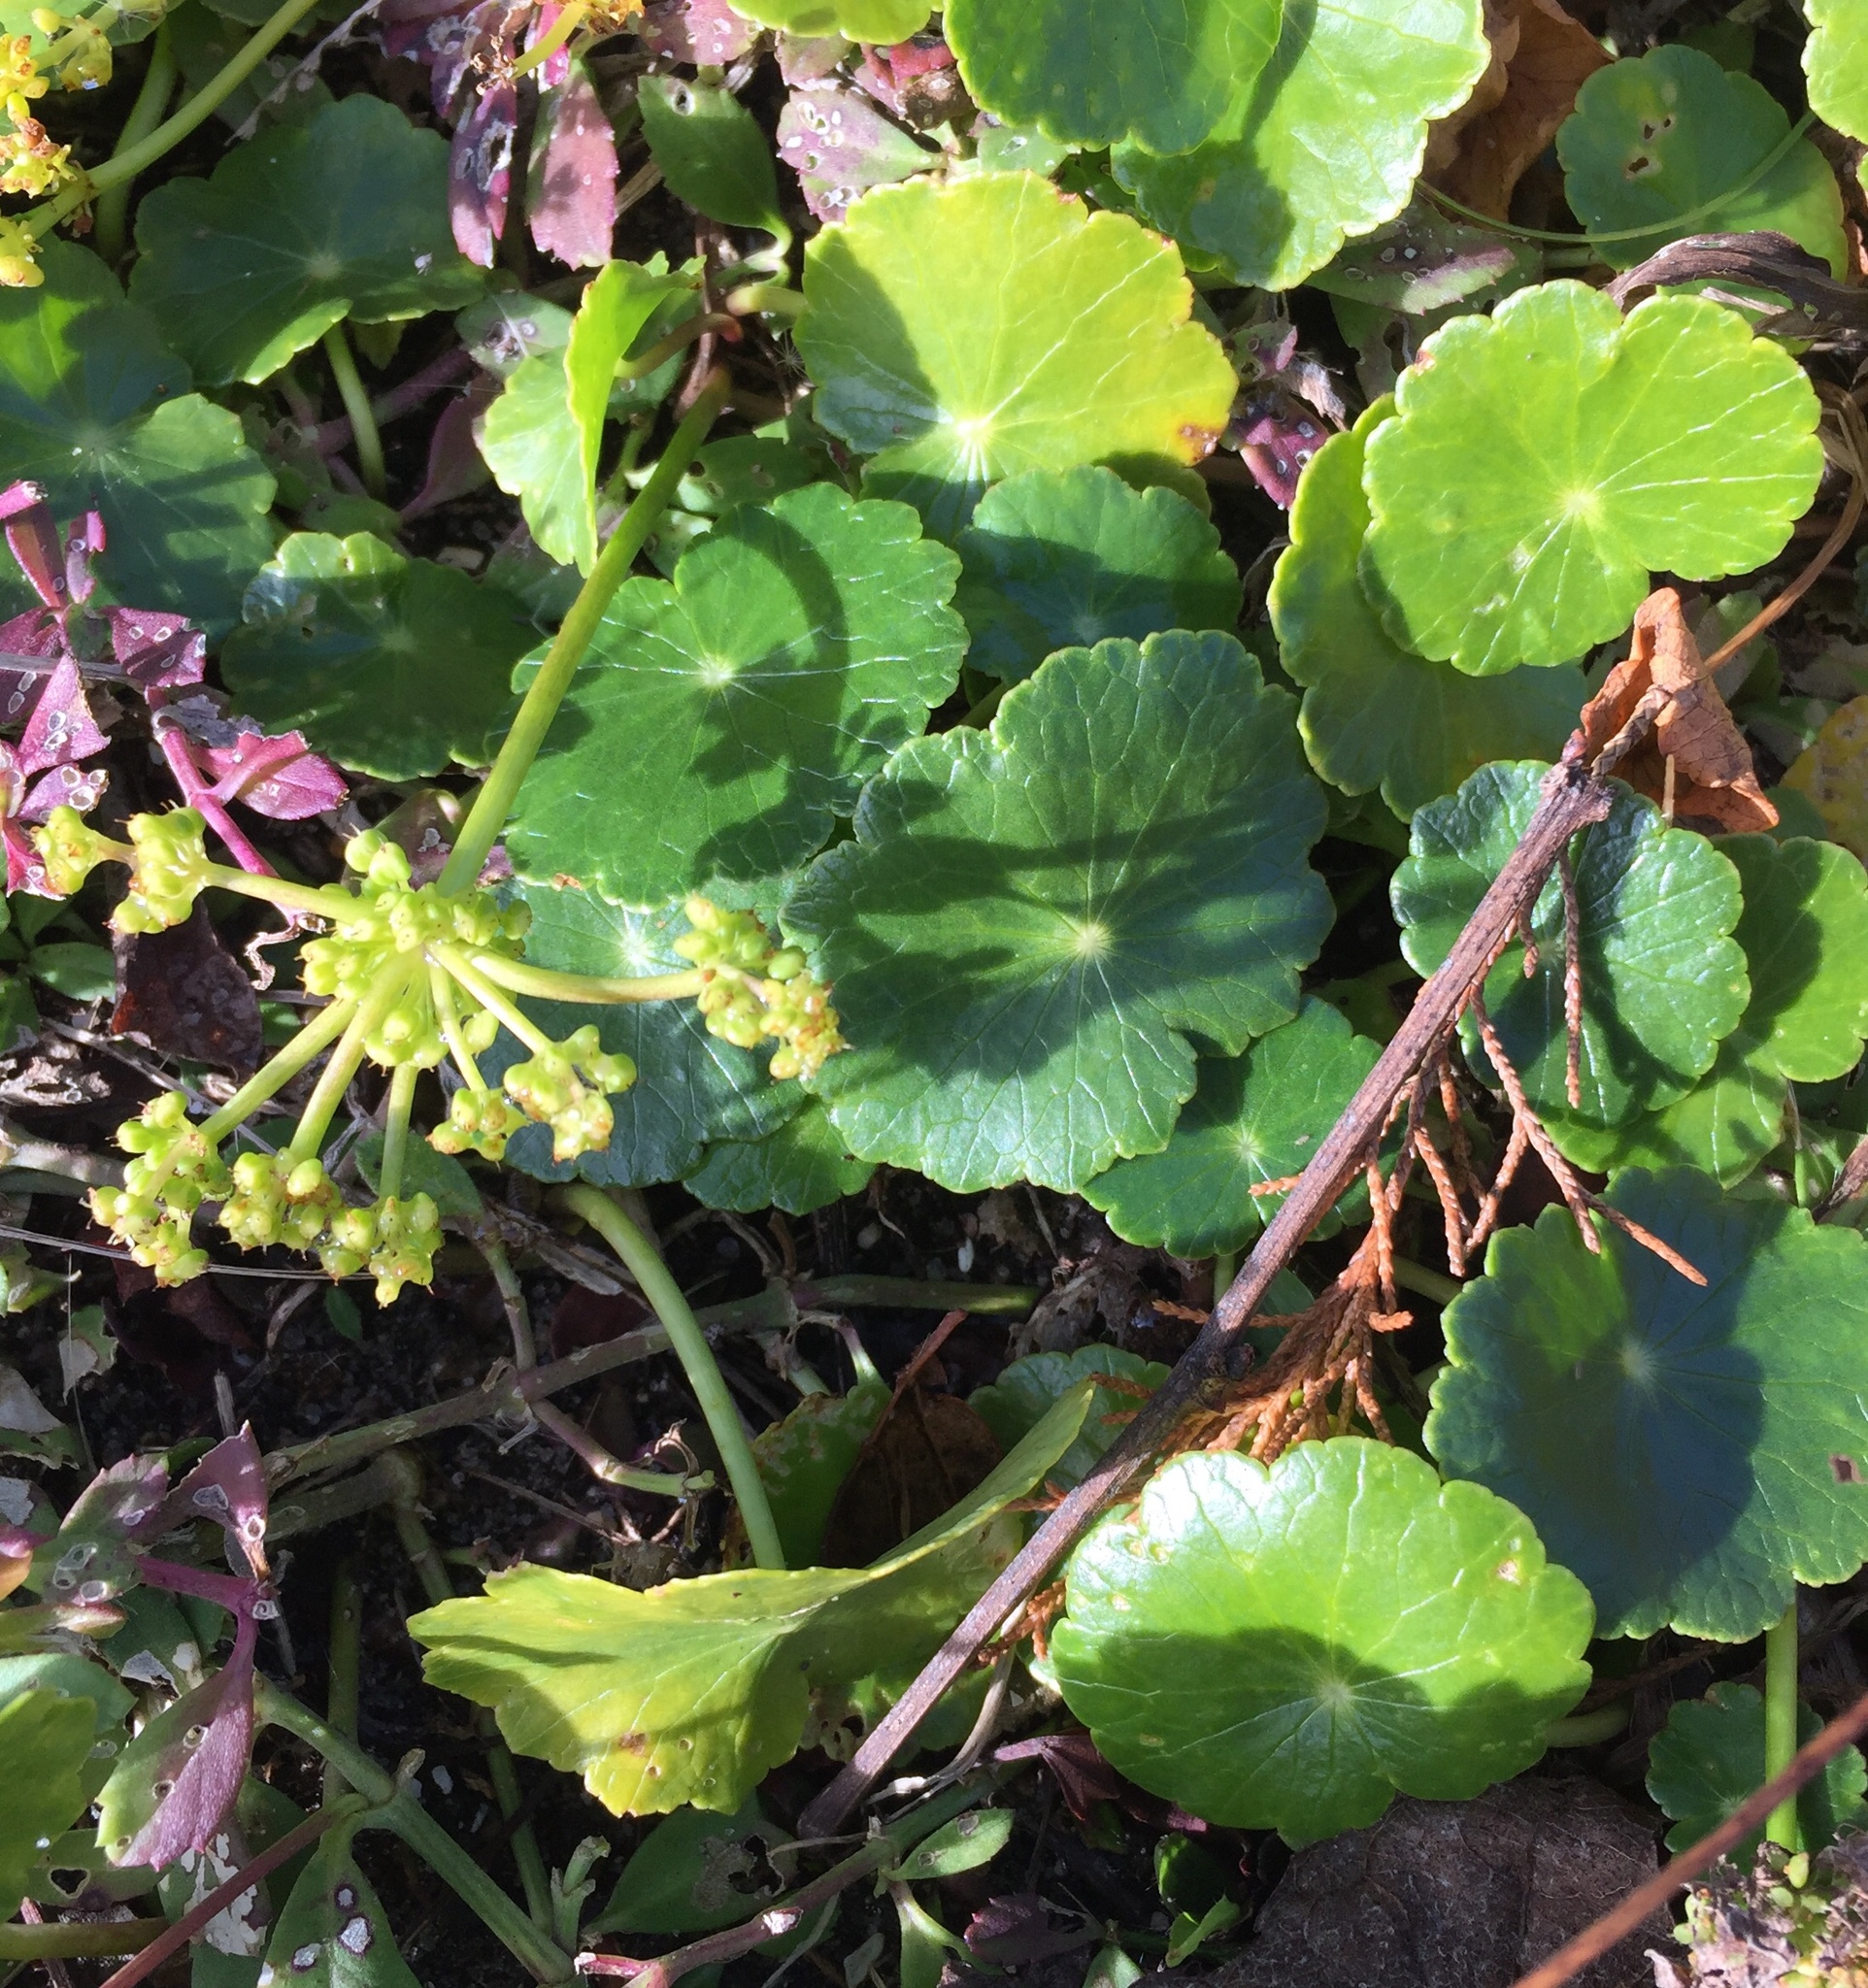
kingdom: Plantae
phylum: Tracheophyta
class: Magnoliopsida
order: Apiales
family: Araliaceae
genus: Hydrocotyle
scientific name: Hydrocotyle bonariensis
